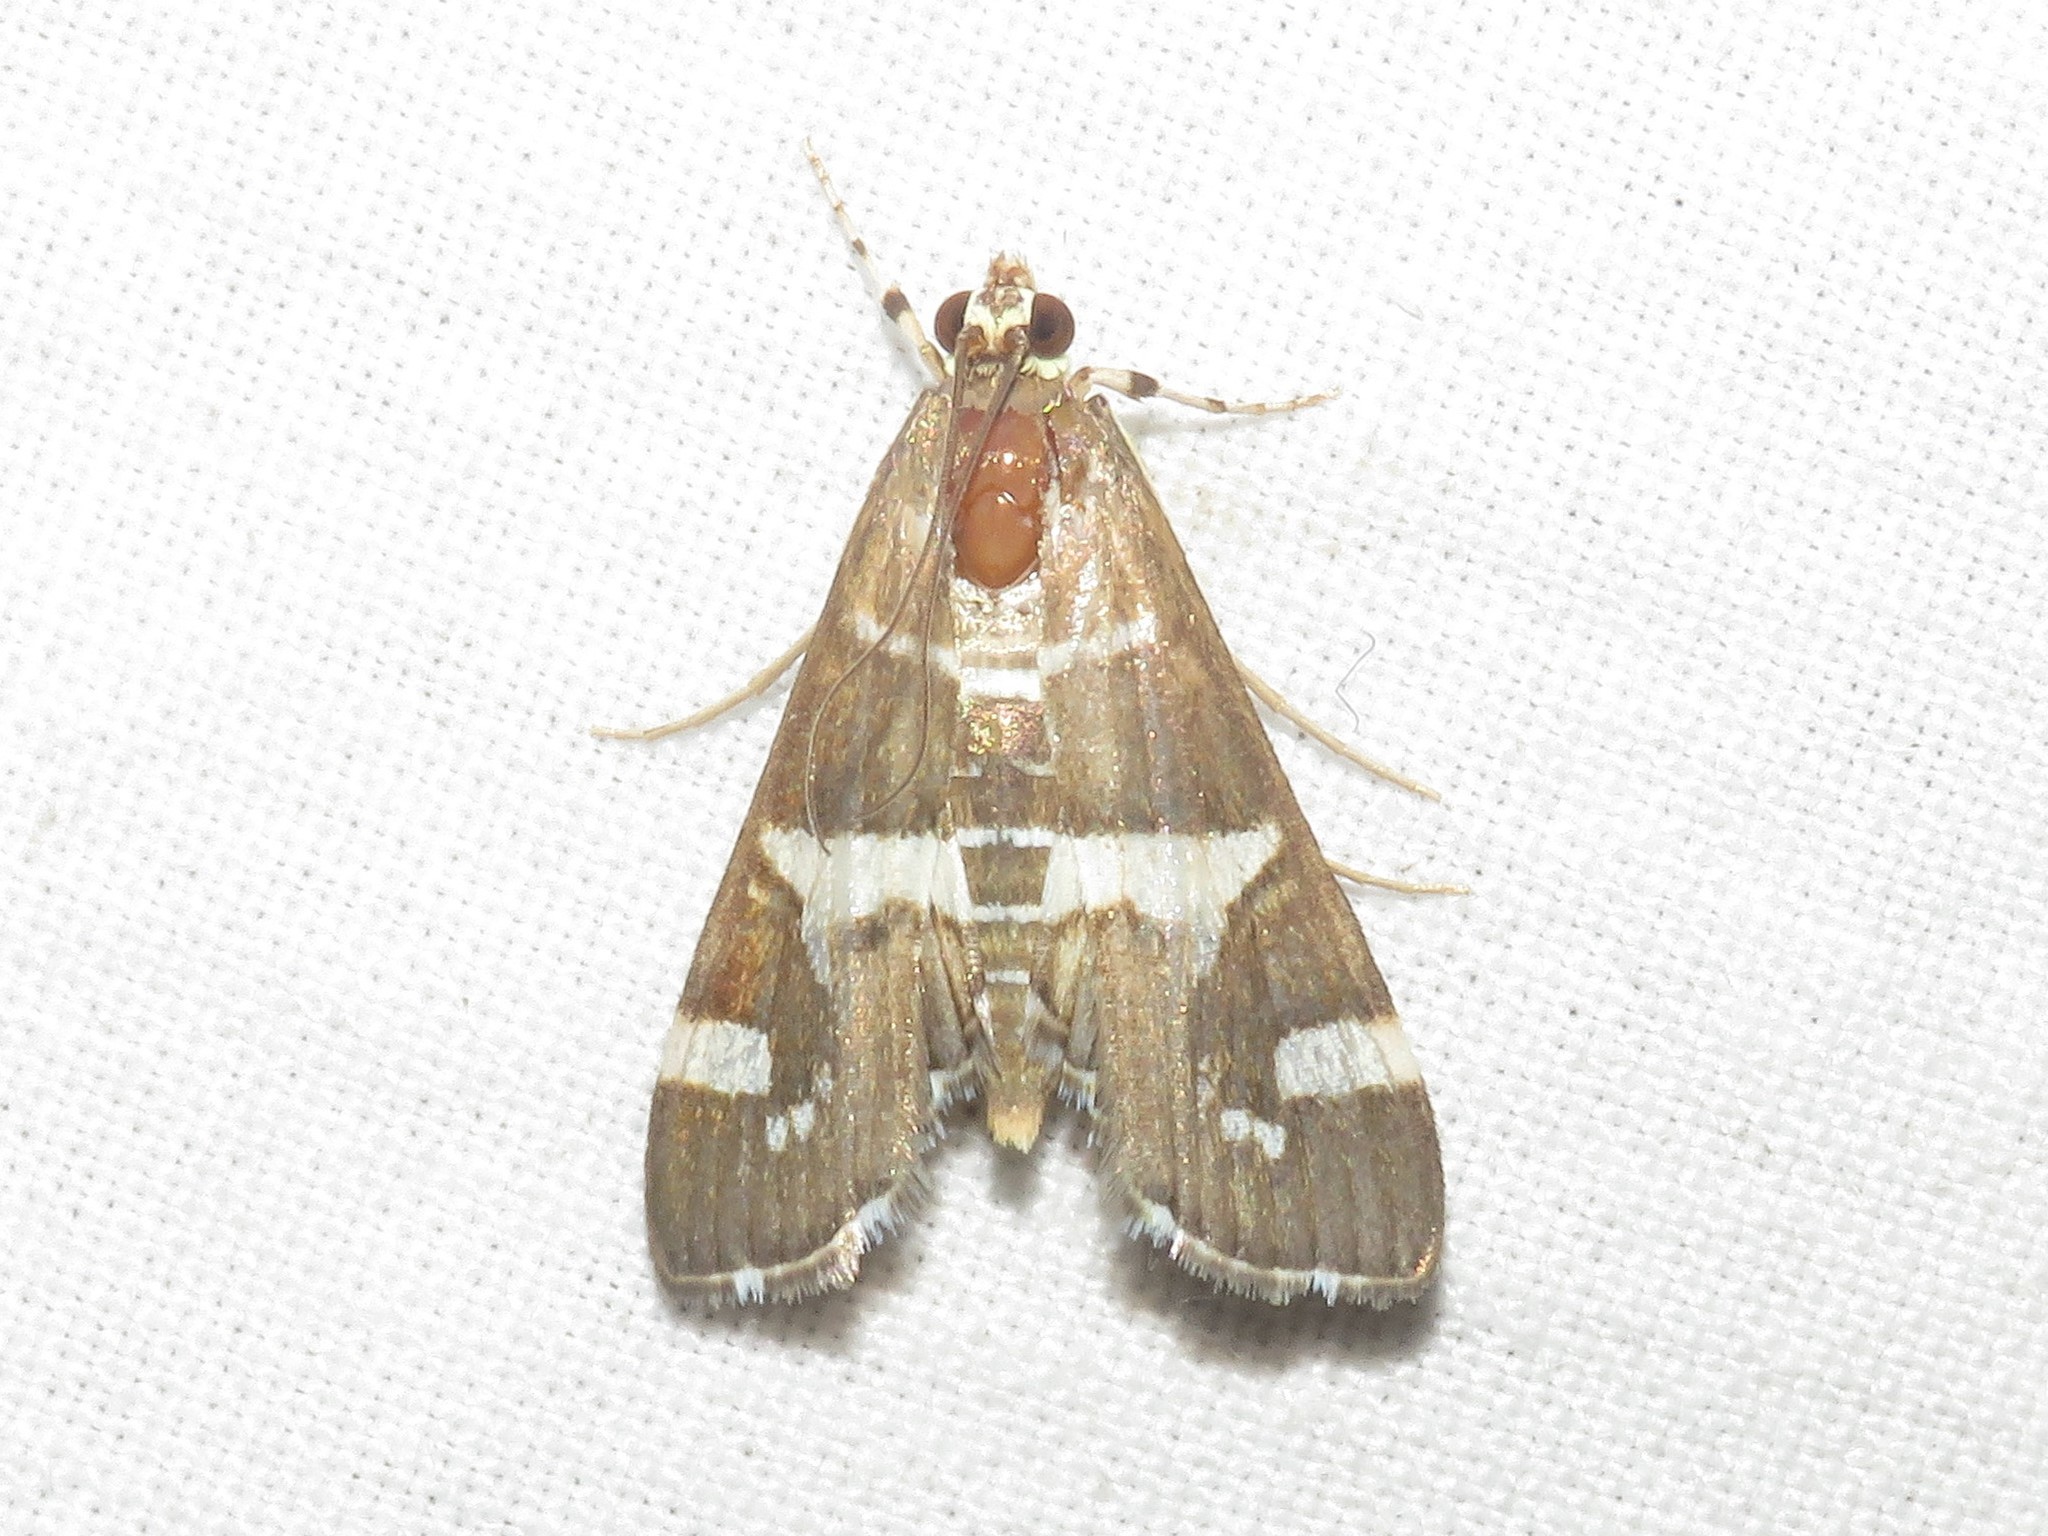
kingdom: Animalia
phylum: Arthropoda
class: Insecta
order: Lepidoptera
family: Crambidae
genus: Spoladea
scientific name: Spoladea recurvalis
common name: Beet webworm moth
